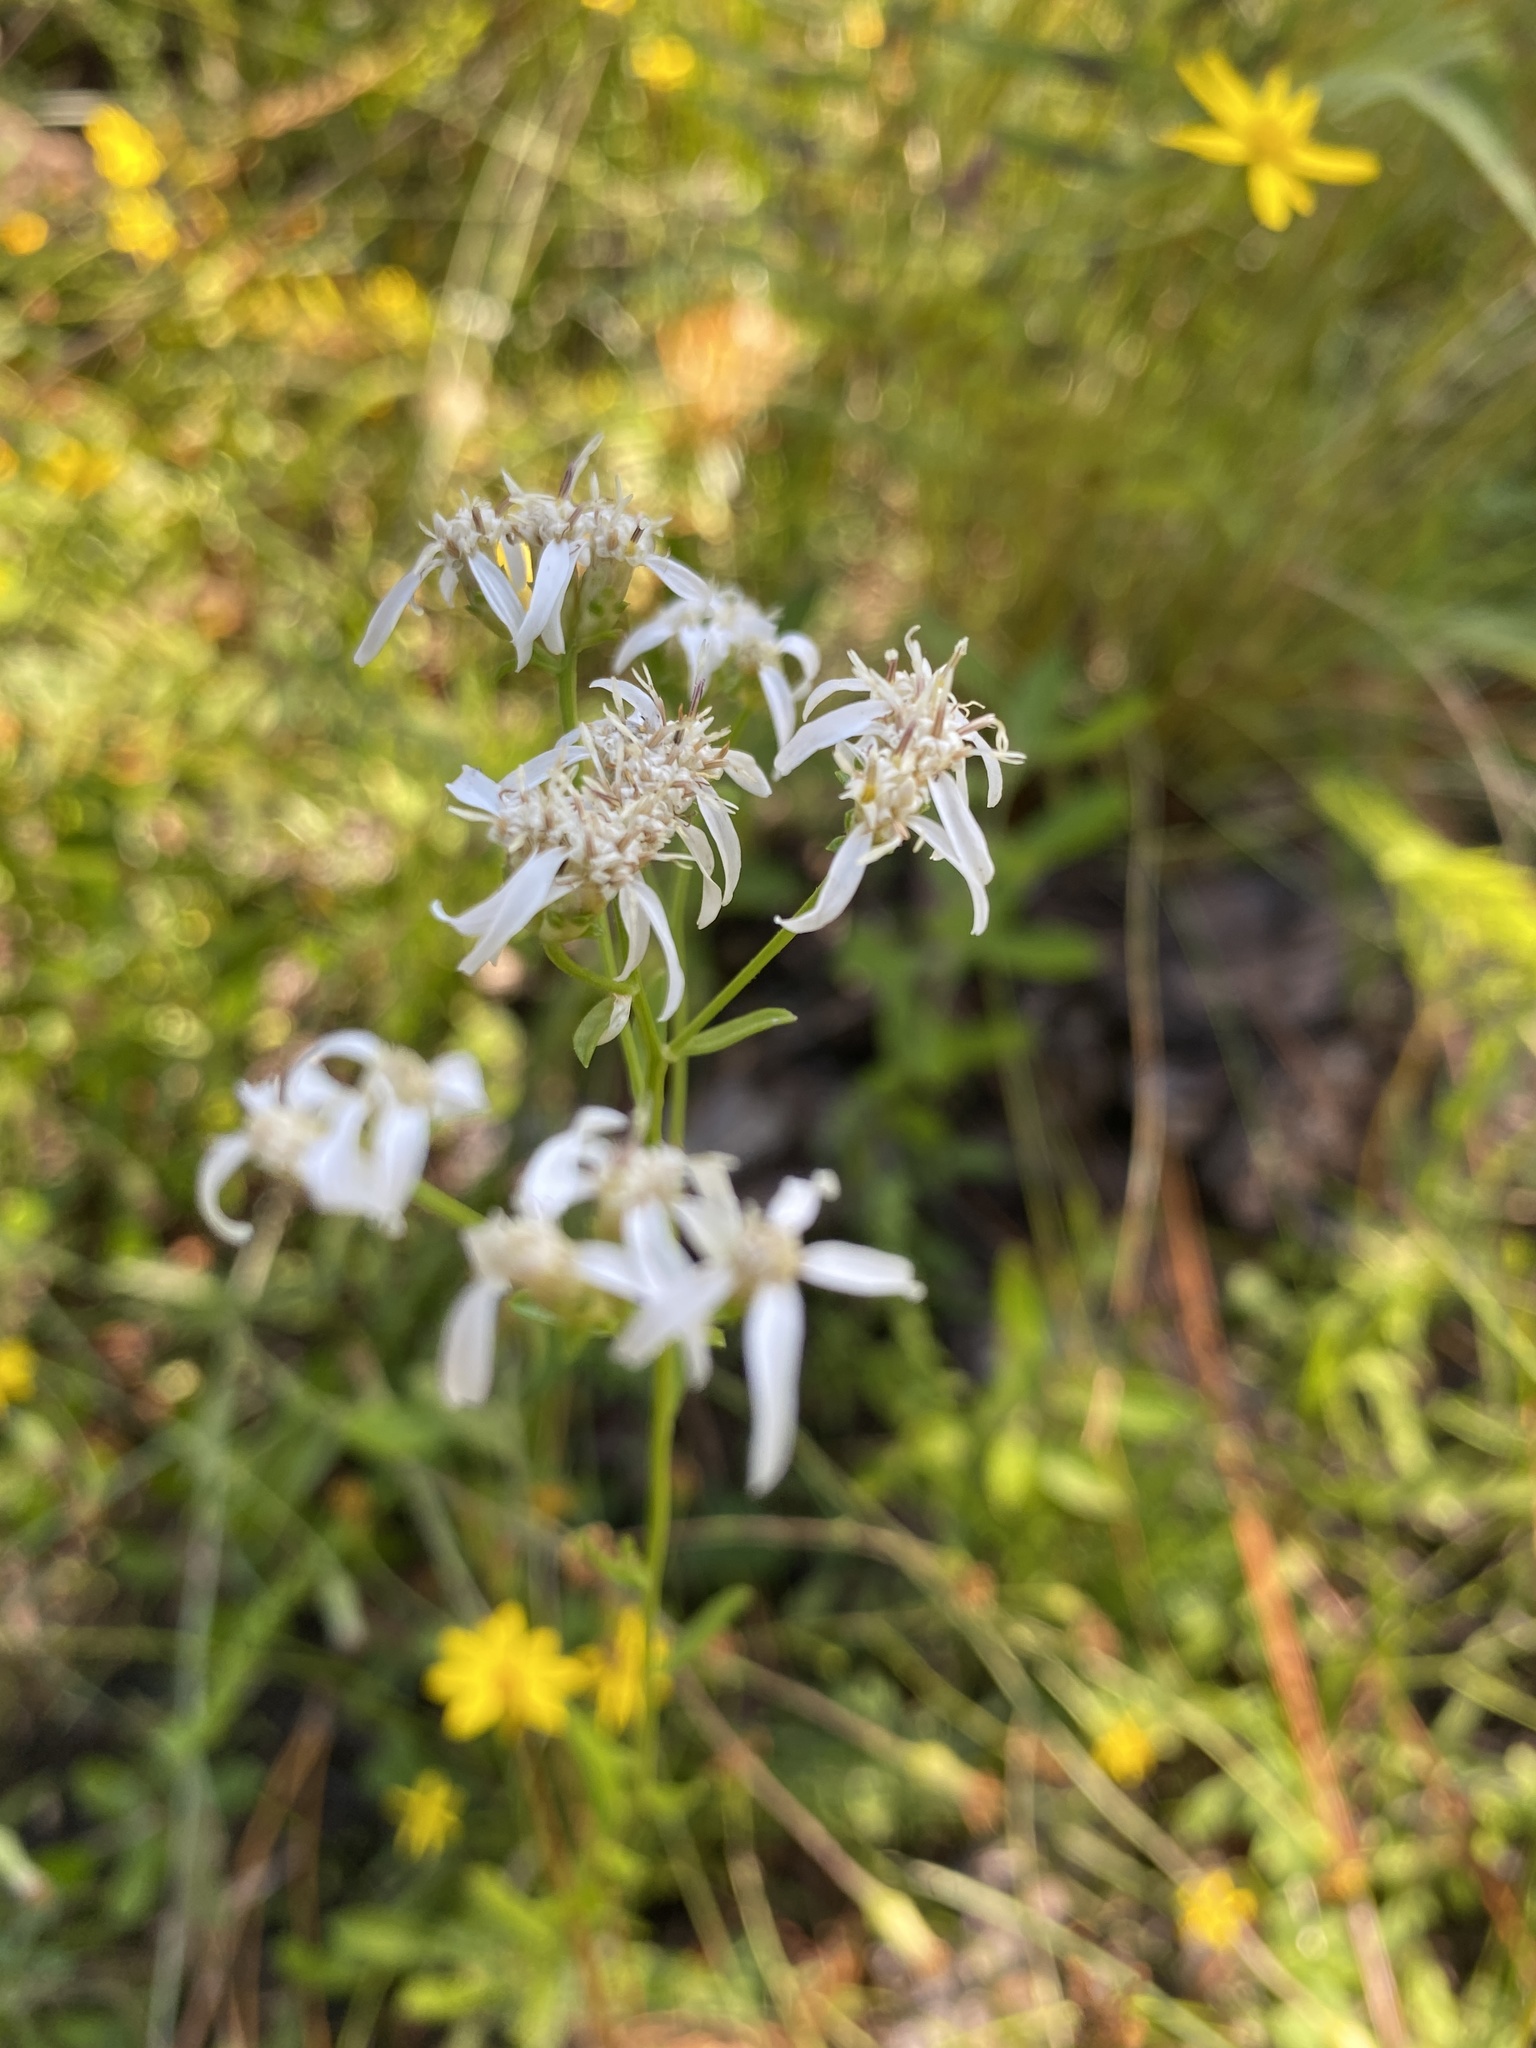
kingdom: Plantae
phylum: Tracheophyta
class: Magnoliopsida
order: Asterales
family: Asteraceae
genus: Sericocarpus
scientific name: Sericocarpus linifolius
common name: Narrow-leaf aster
